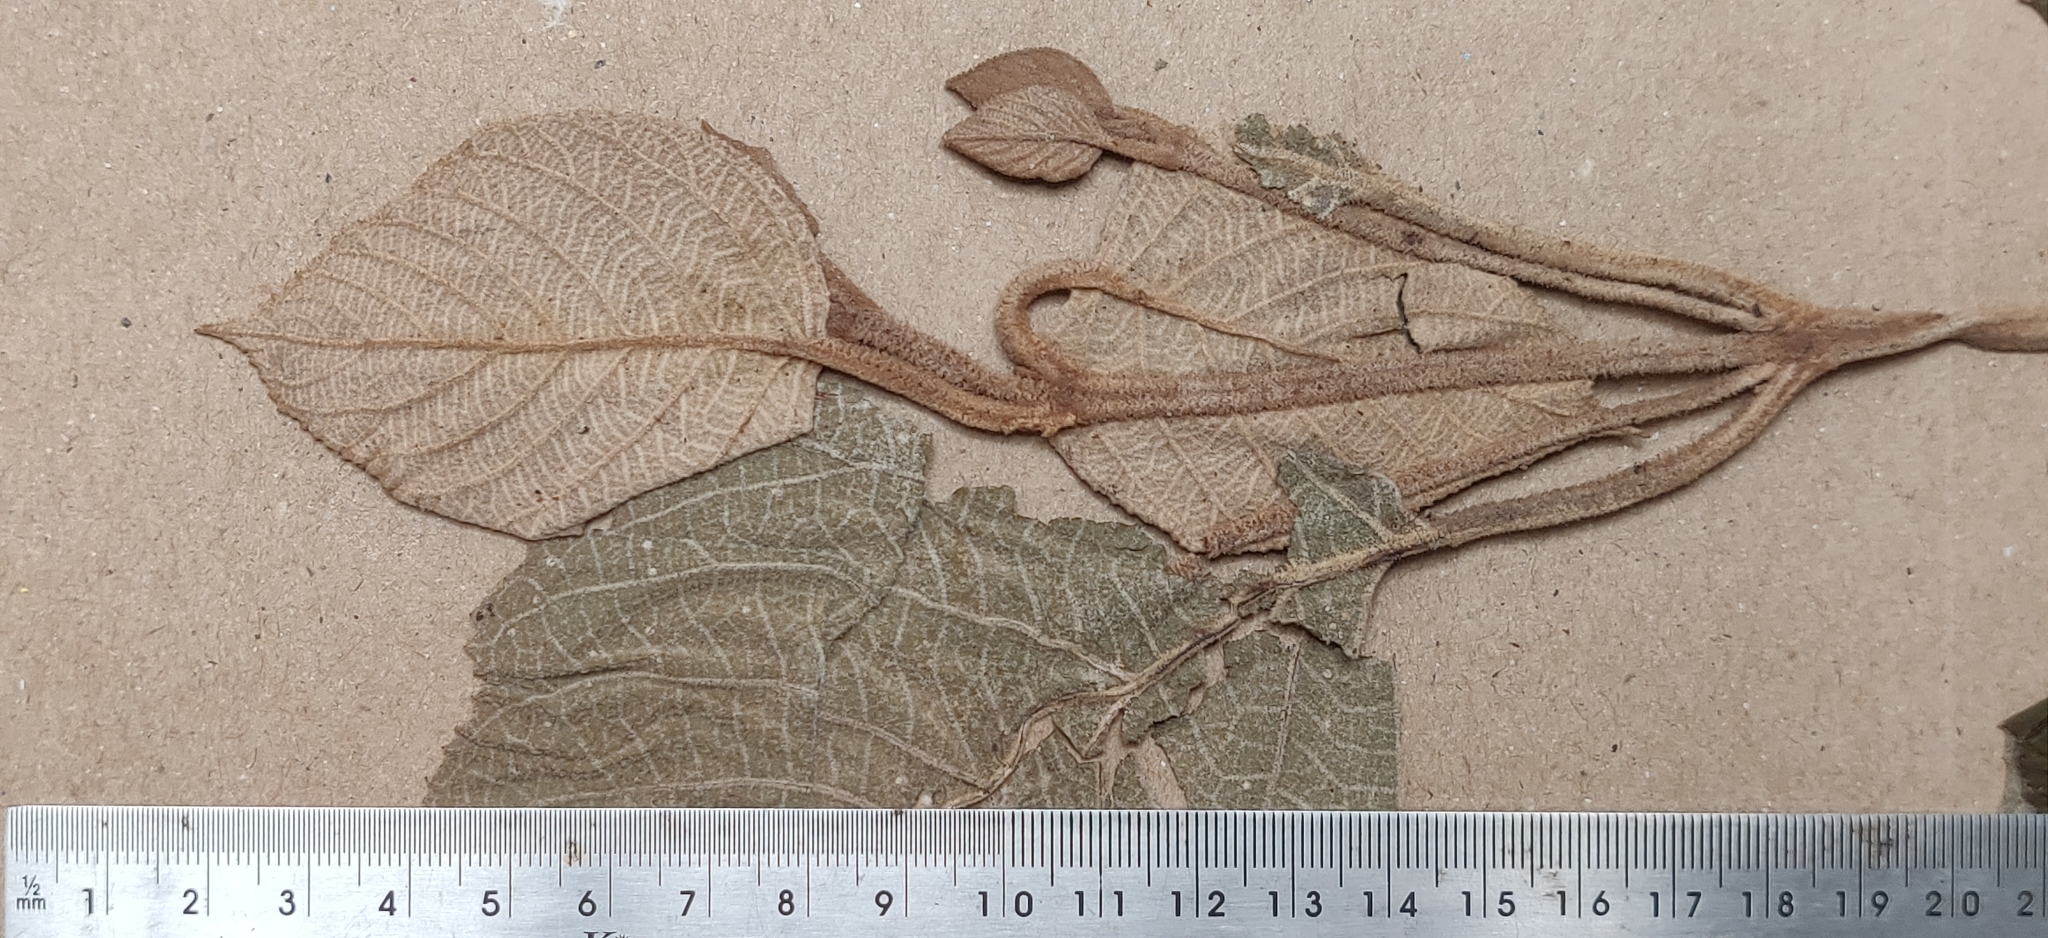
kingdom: Plantae
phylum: Tracheophyta
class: Magnoliopsida
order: Lamiales
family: Lamiaceae
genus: Callicarpa
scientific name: Callicarpa tomentosa
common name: Great woolly malayan-lilac
